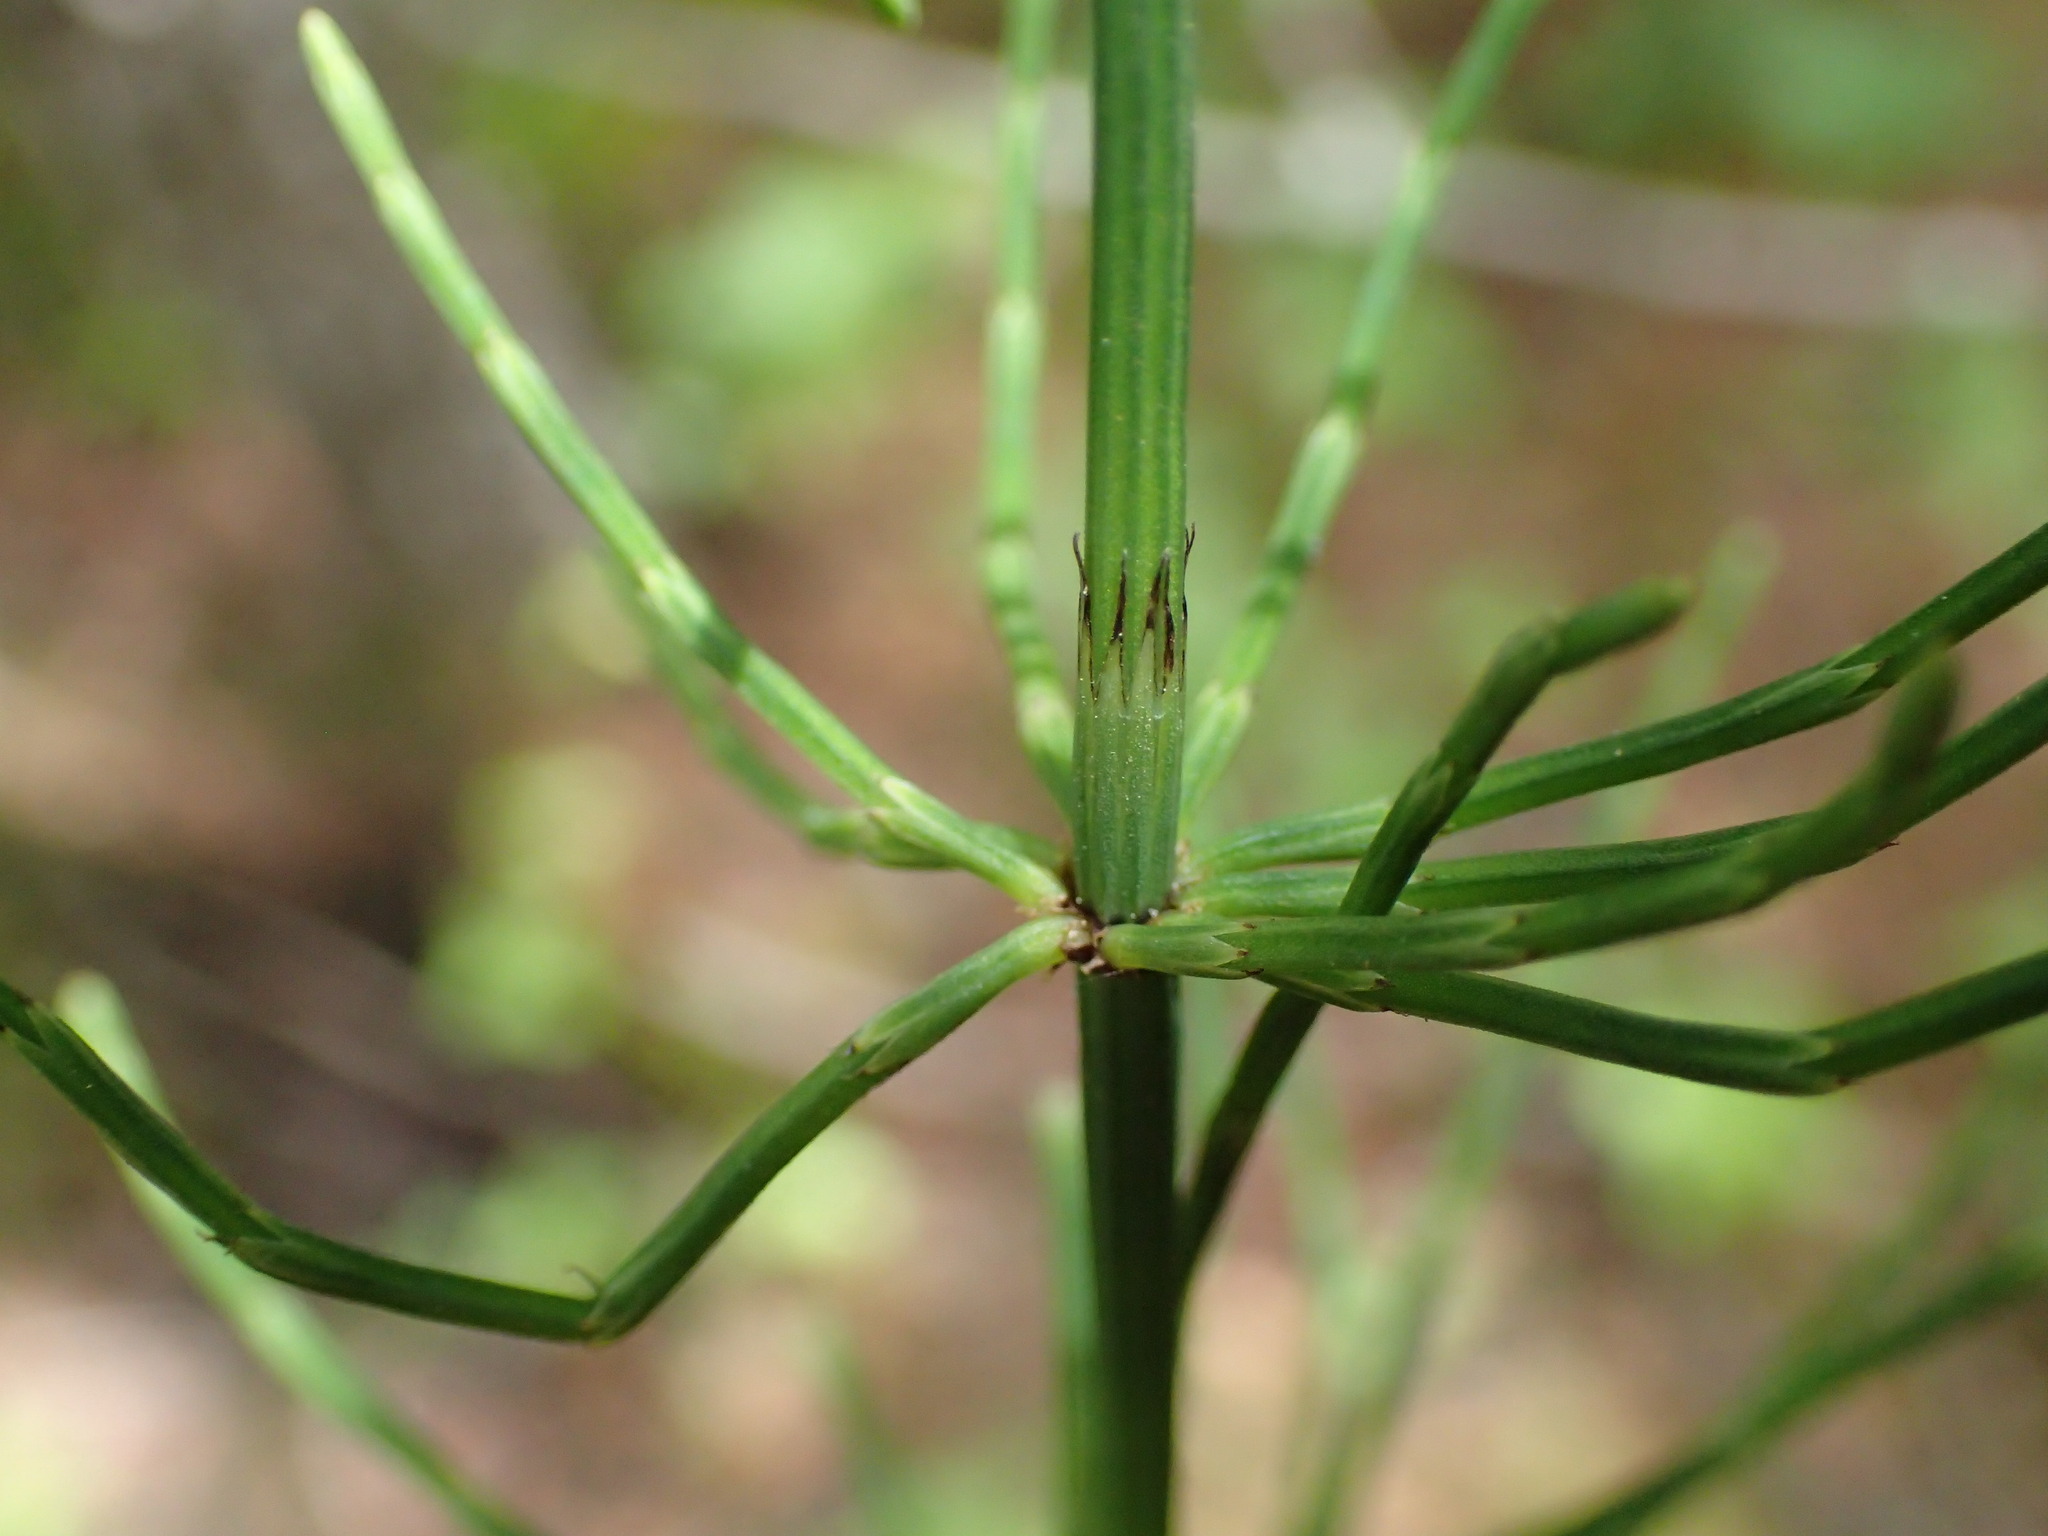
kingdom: Plantae
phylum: Tracheophyta
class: Polypodiopsida
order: Equisetales
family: Equisetaceae
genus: Equisetum
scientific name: Equisetum palustre
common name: Marsh horsetail
